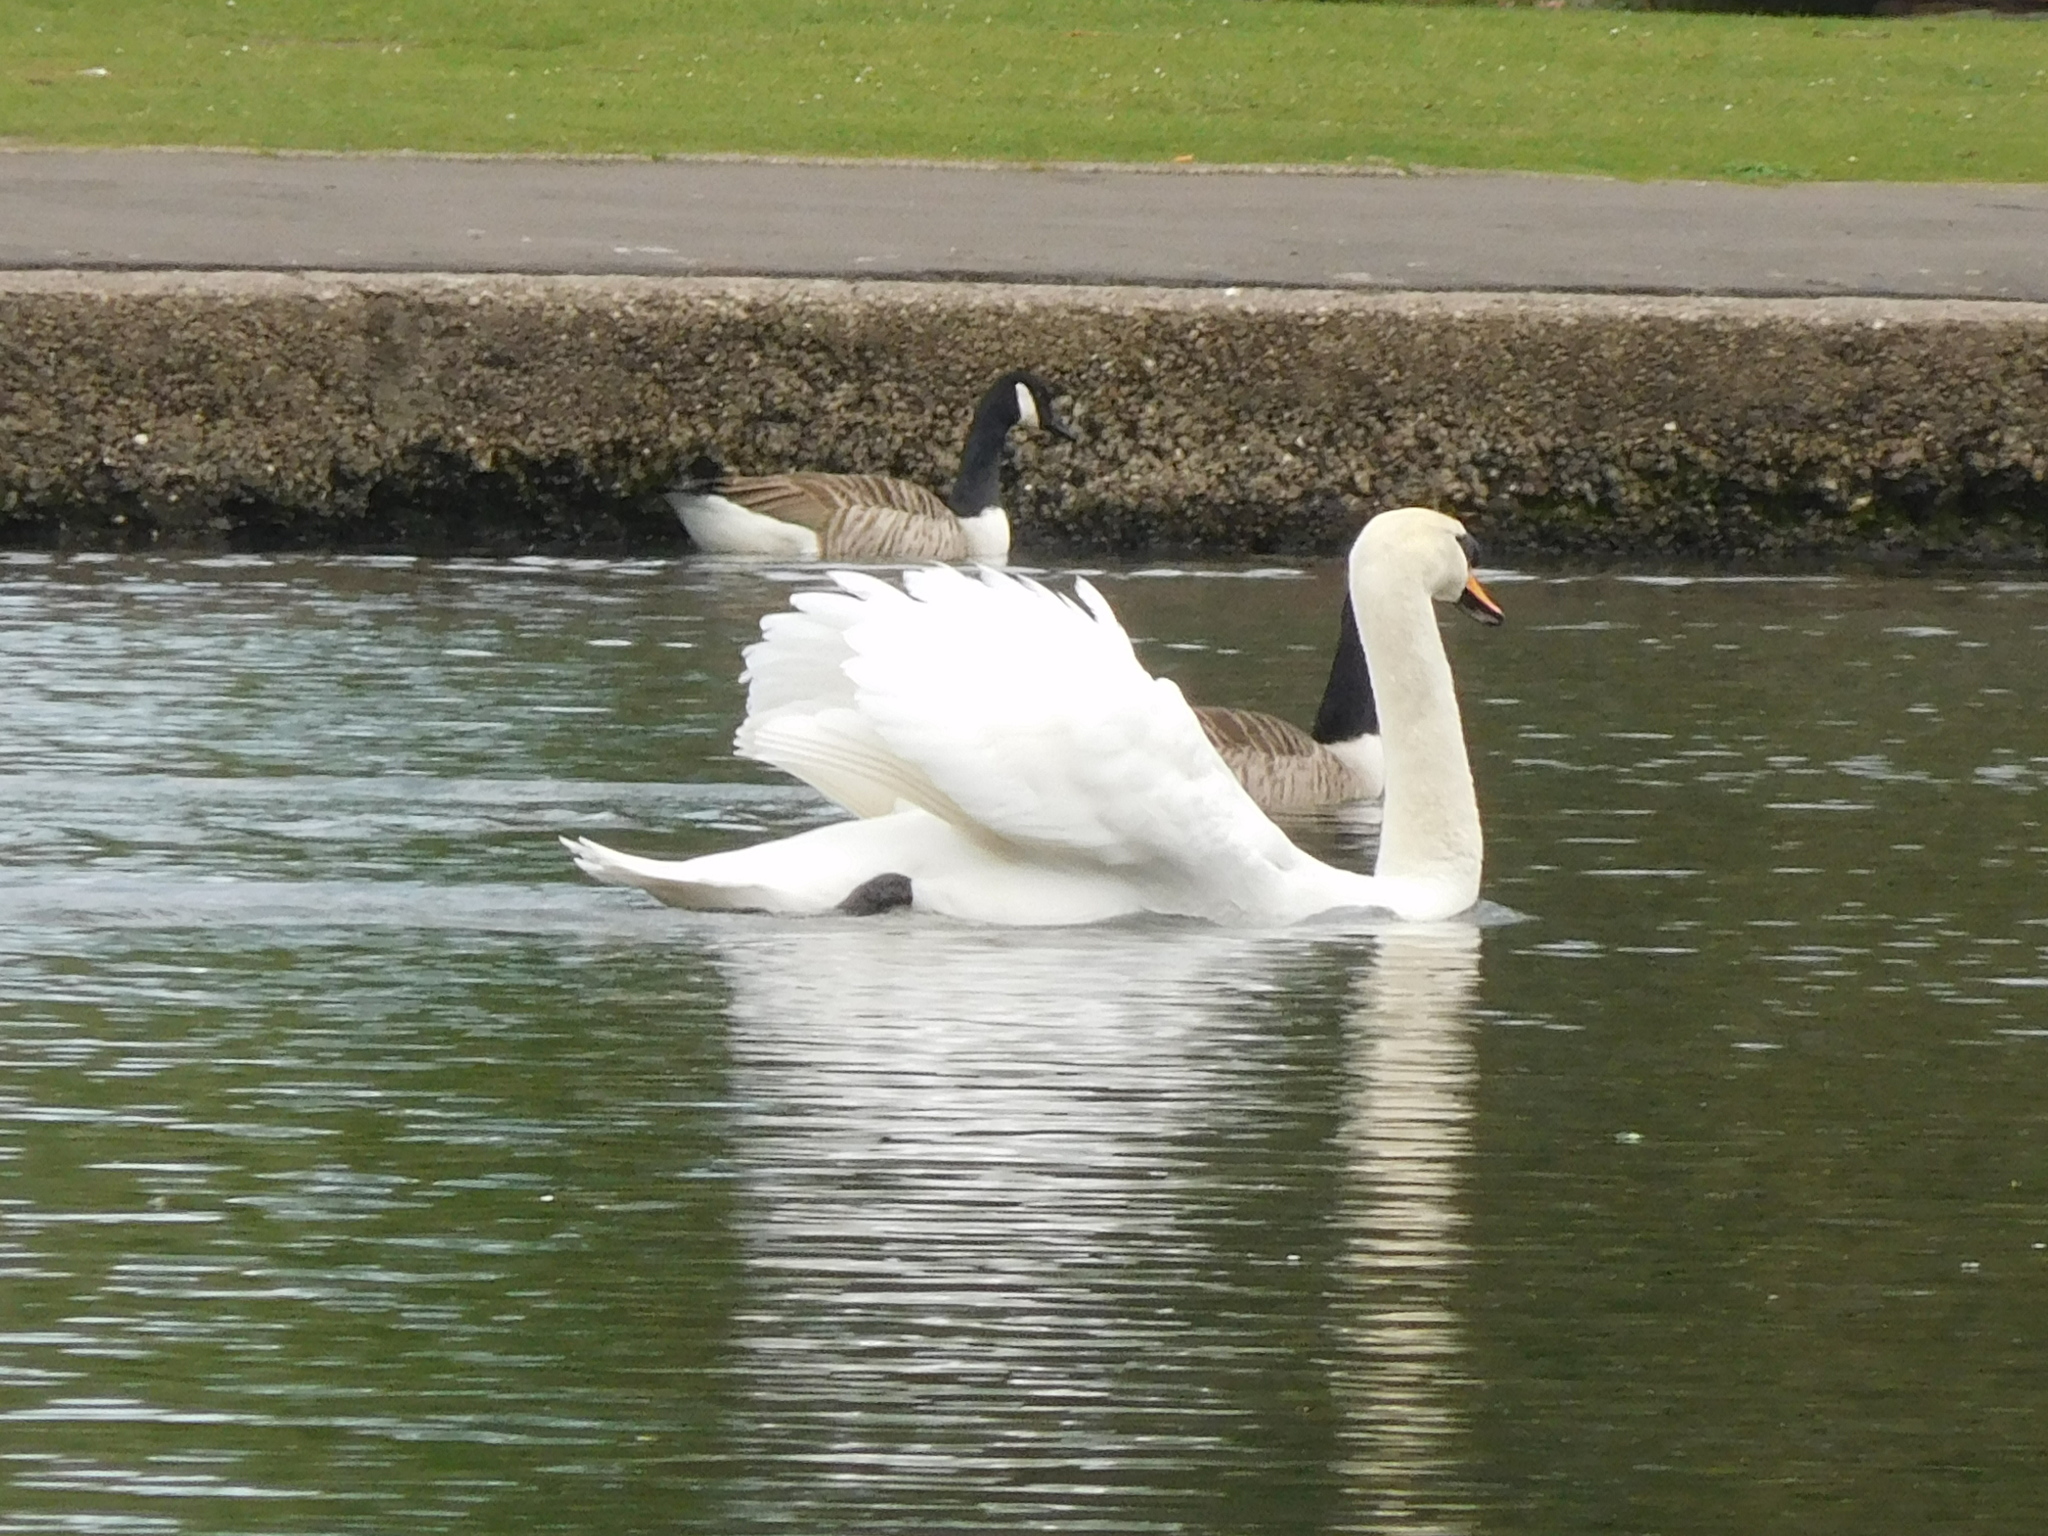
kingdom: Animalia
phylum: Chordata
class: Aves
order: Anseriformes
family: Anatidae
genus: Branta
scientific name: Branta canadensis
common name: Canada goose
